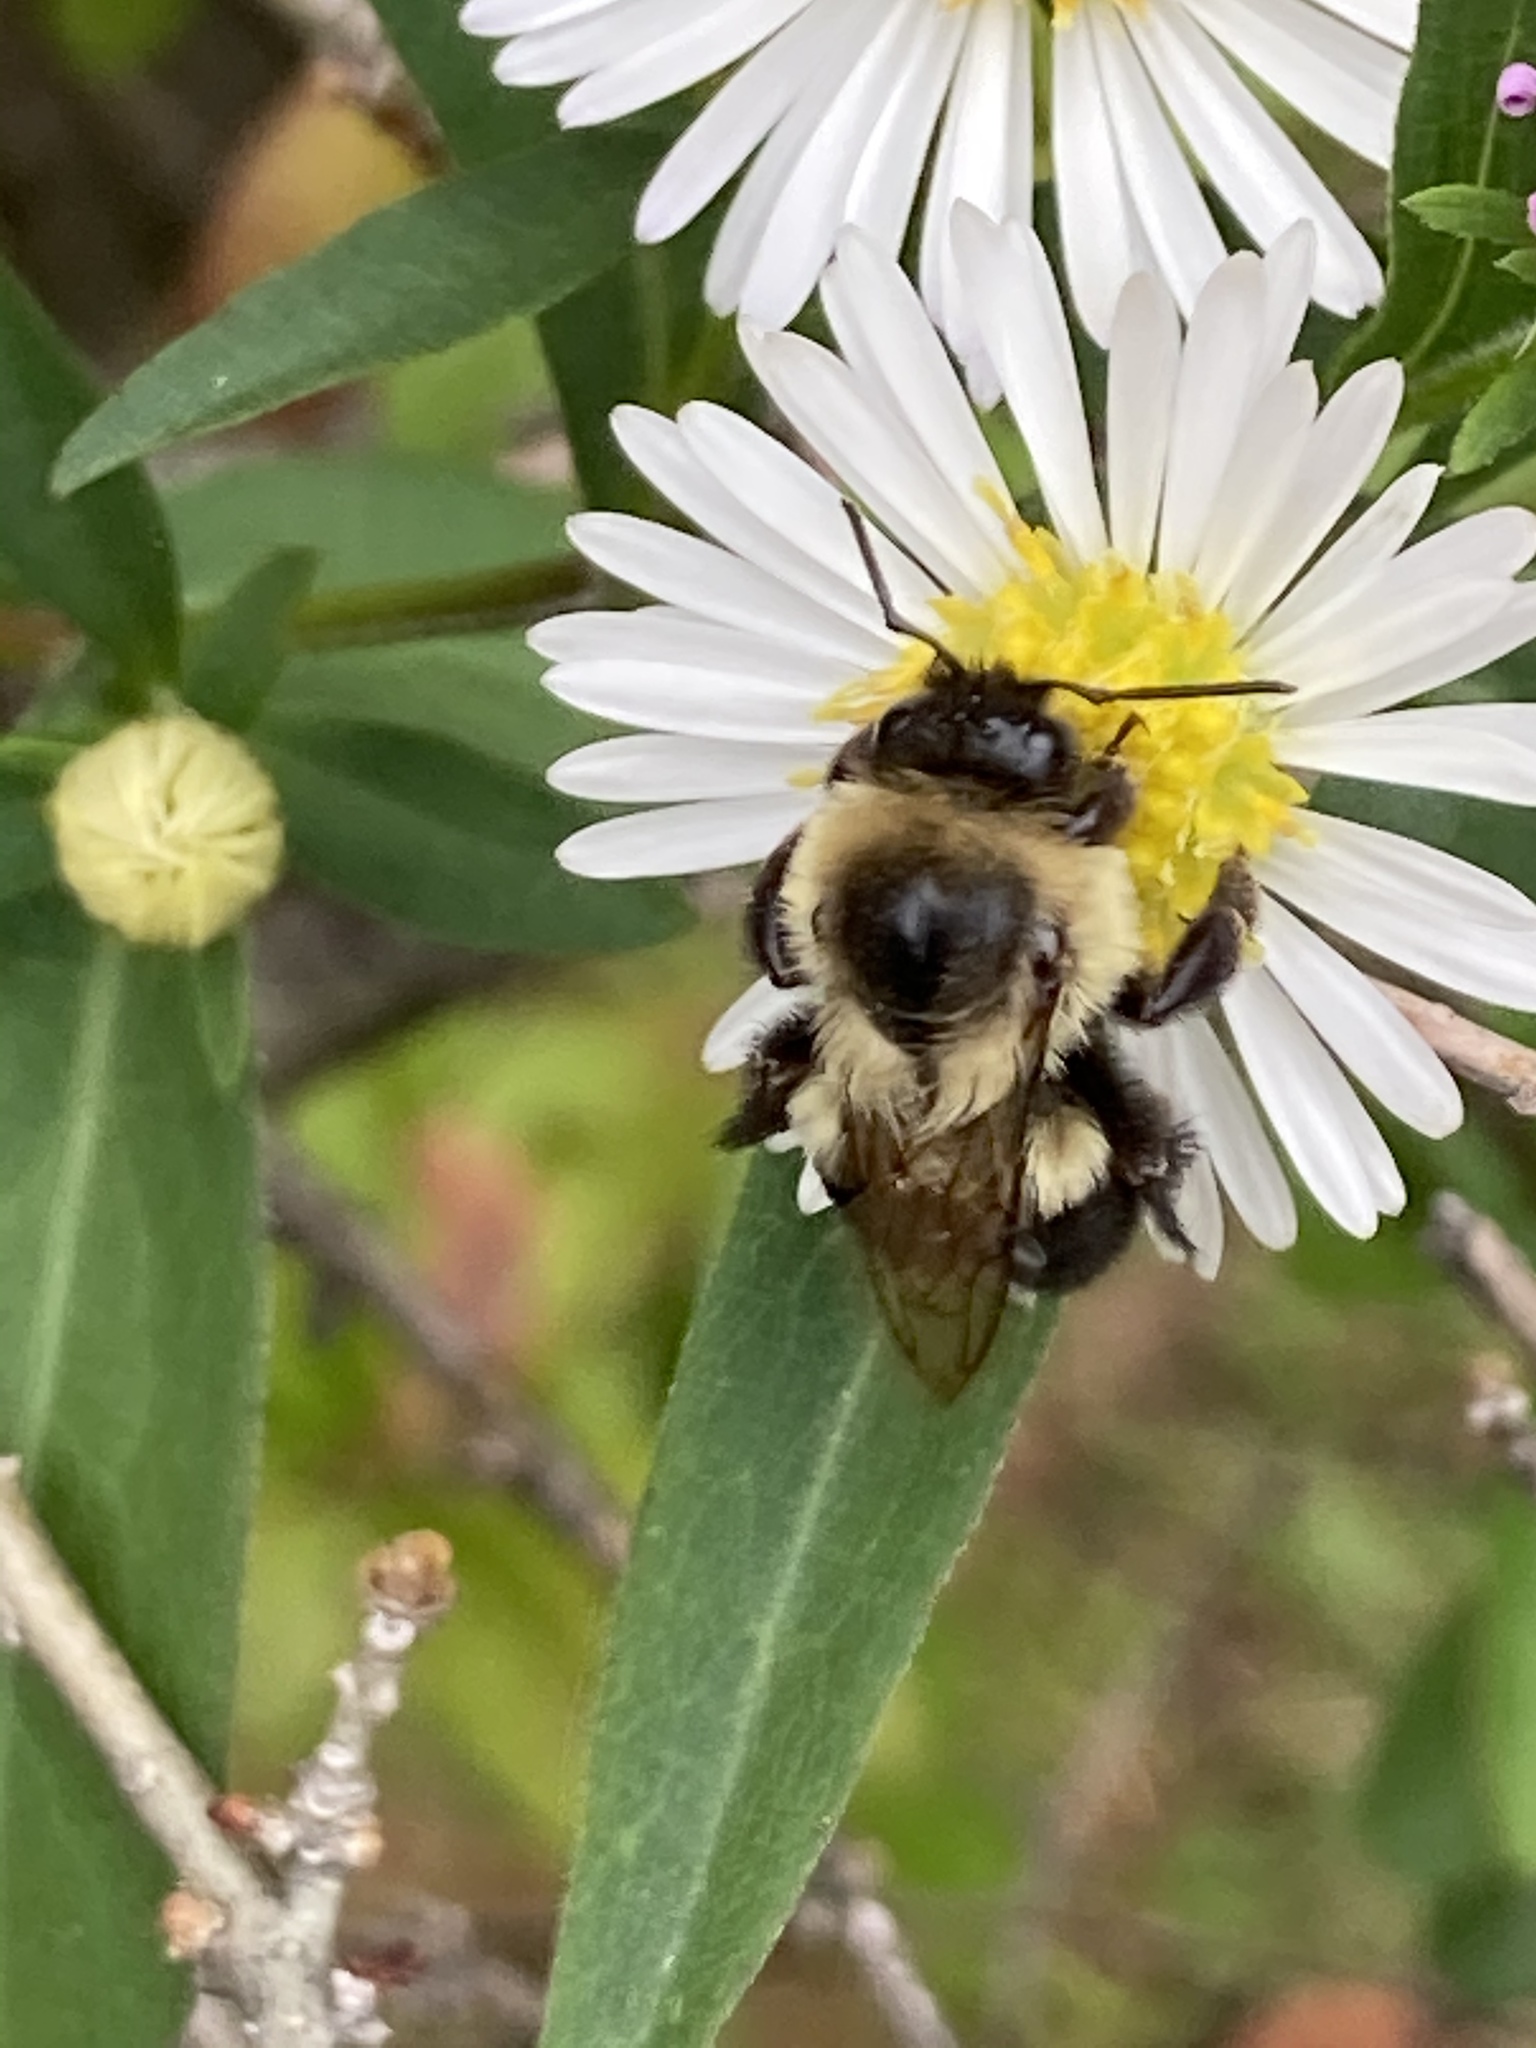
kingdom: Animalia
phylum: Arthropoda
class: Insecta
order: Hymenoptera
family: Apidae
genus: Bombus
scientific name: Bombus impatiens
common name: Common eastern bumble bee
